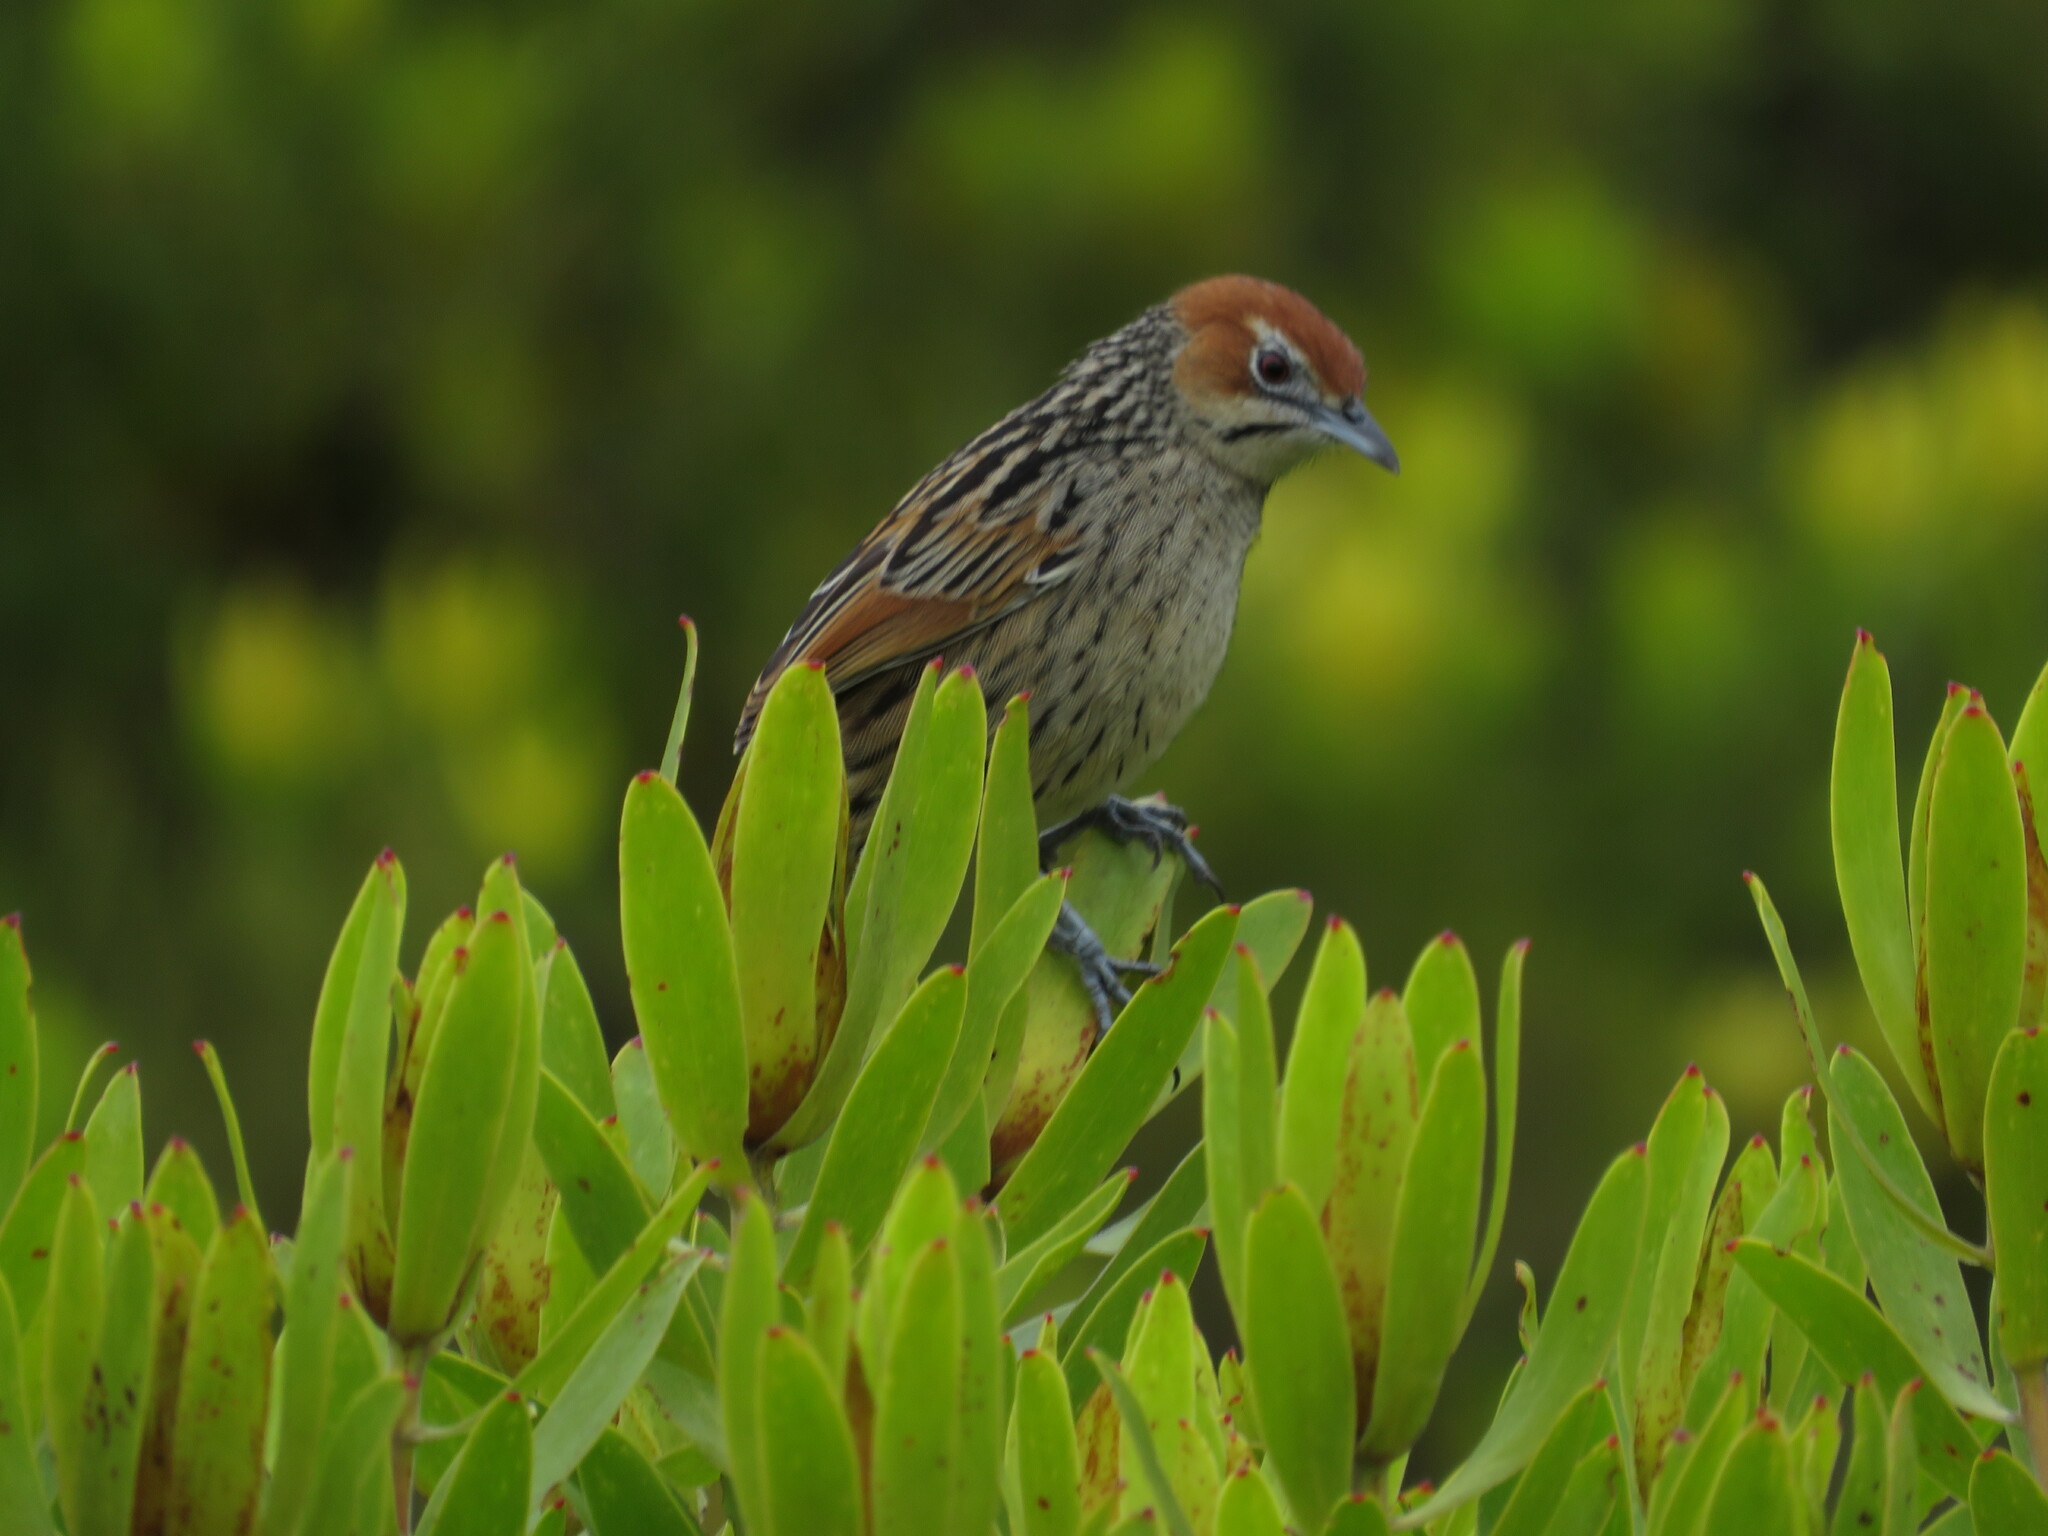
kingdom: Animalia
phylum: Chordata
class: Aves
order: Passeriformes
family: Macrosphenidae
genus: Sphenoeacus
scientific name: Sphenoeacus afer
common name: Cape grassbird
